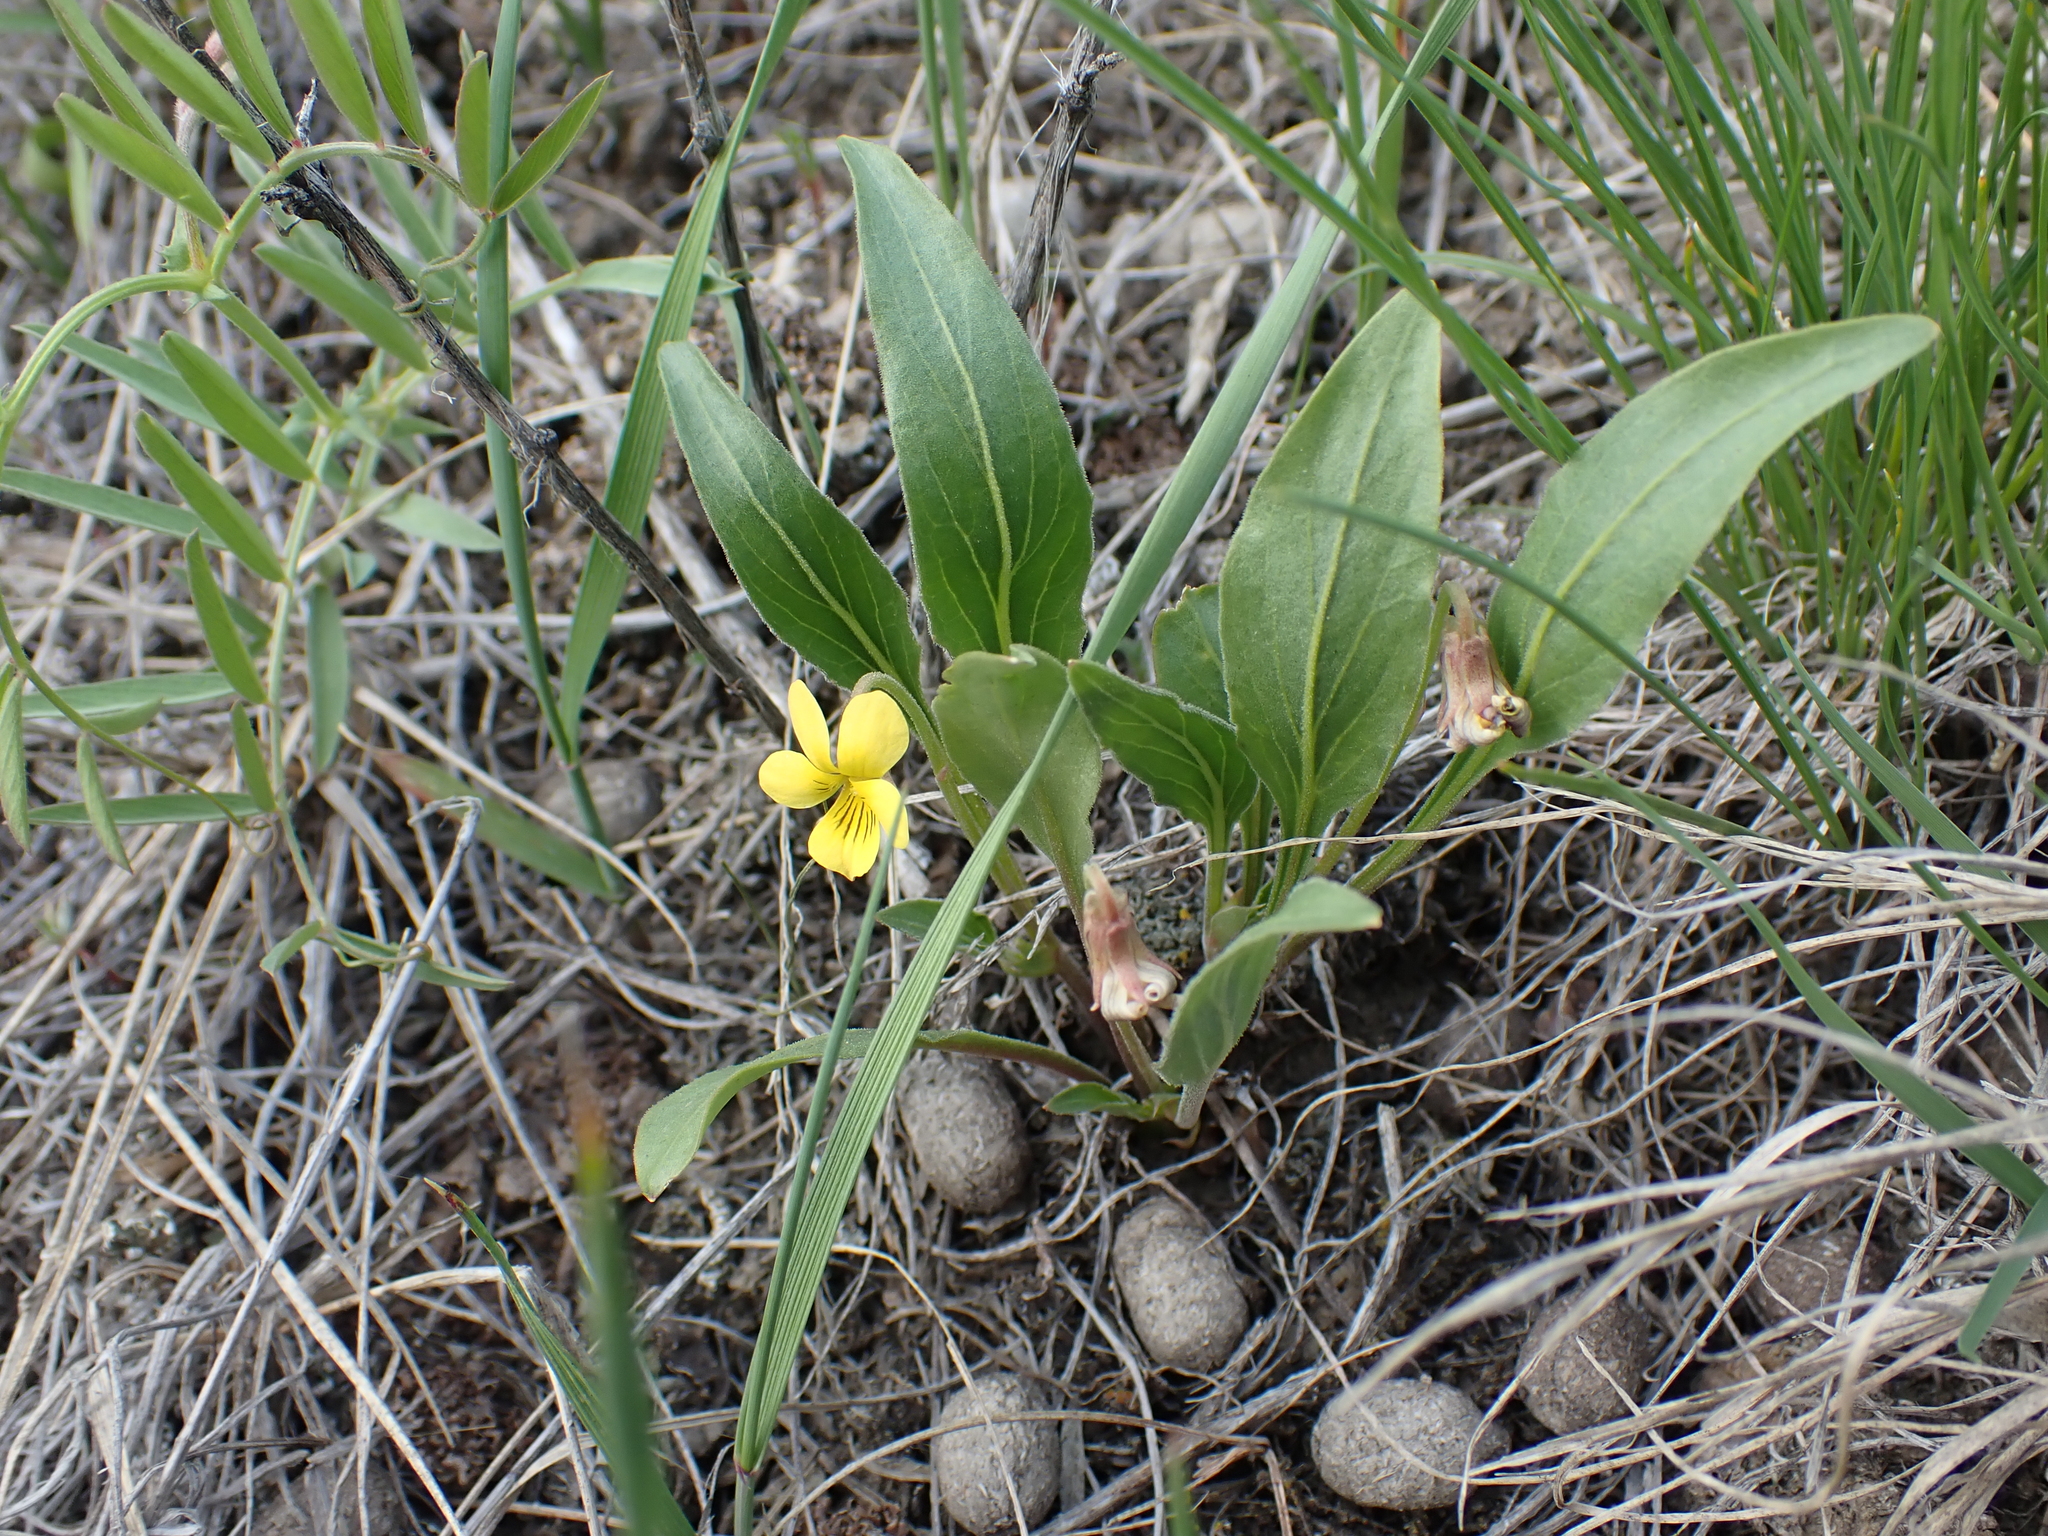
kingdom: Plantae
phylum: Tracheophyta
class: Magnoliopsida
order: Malpighiales
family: Violaceae
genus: Viola
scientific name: Viola nuttallii
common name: Yellow prairie violet
